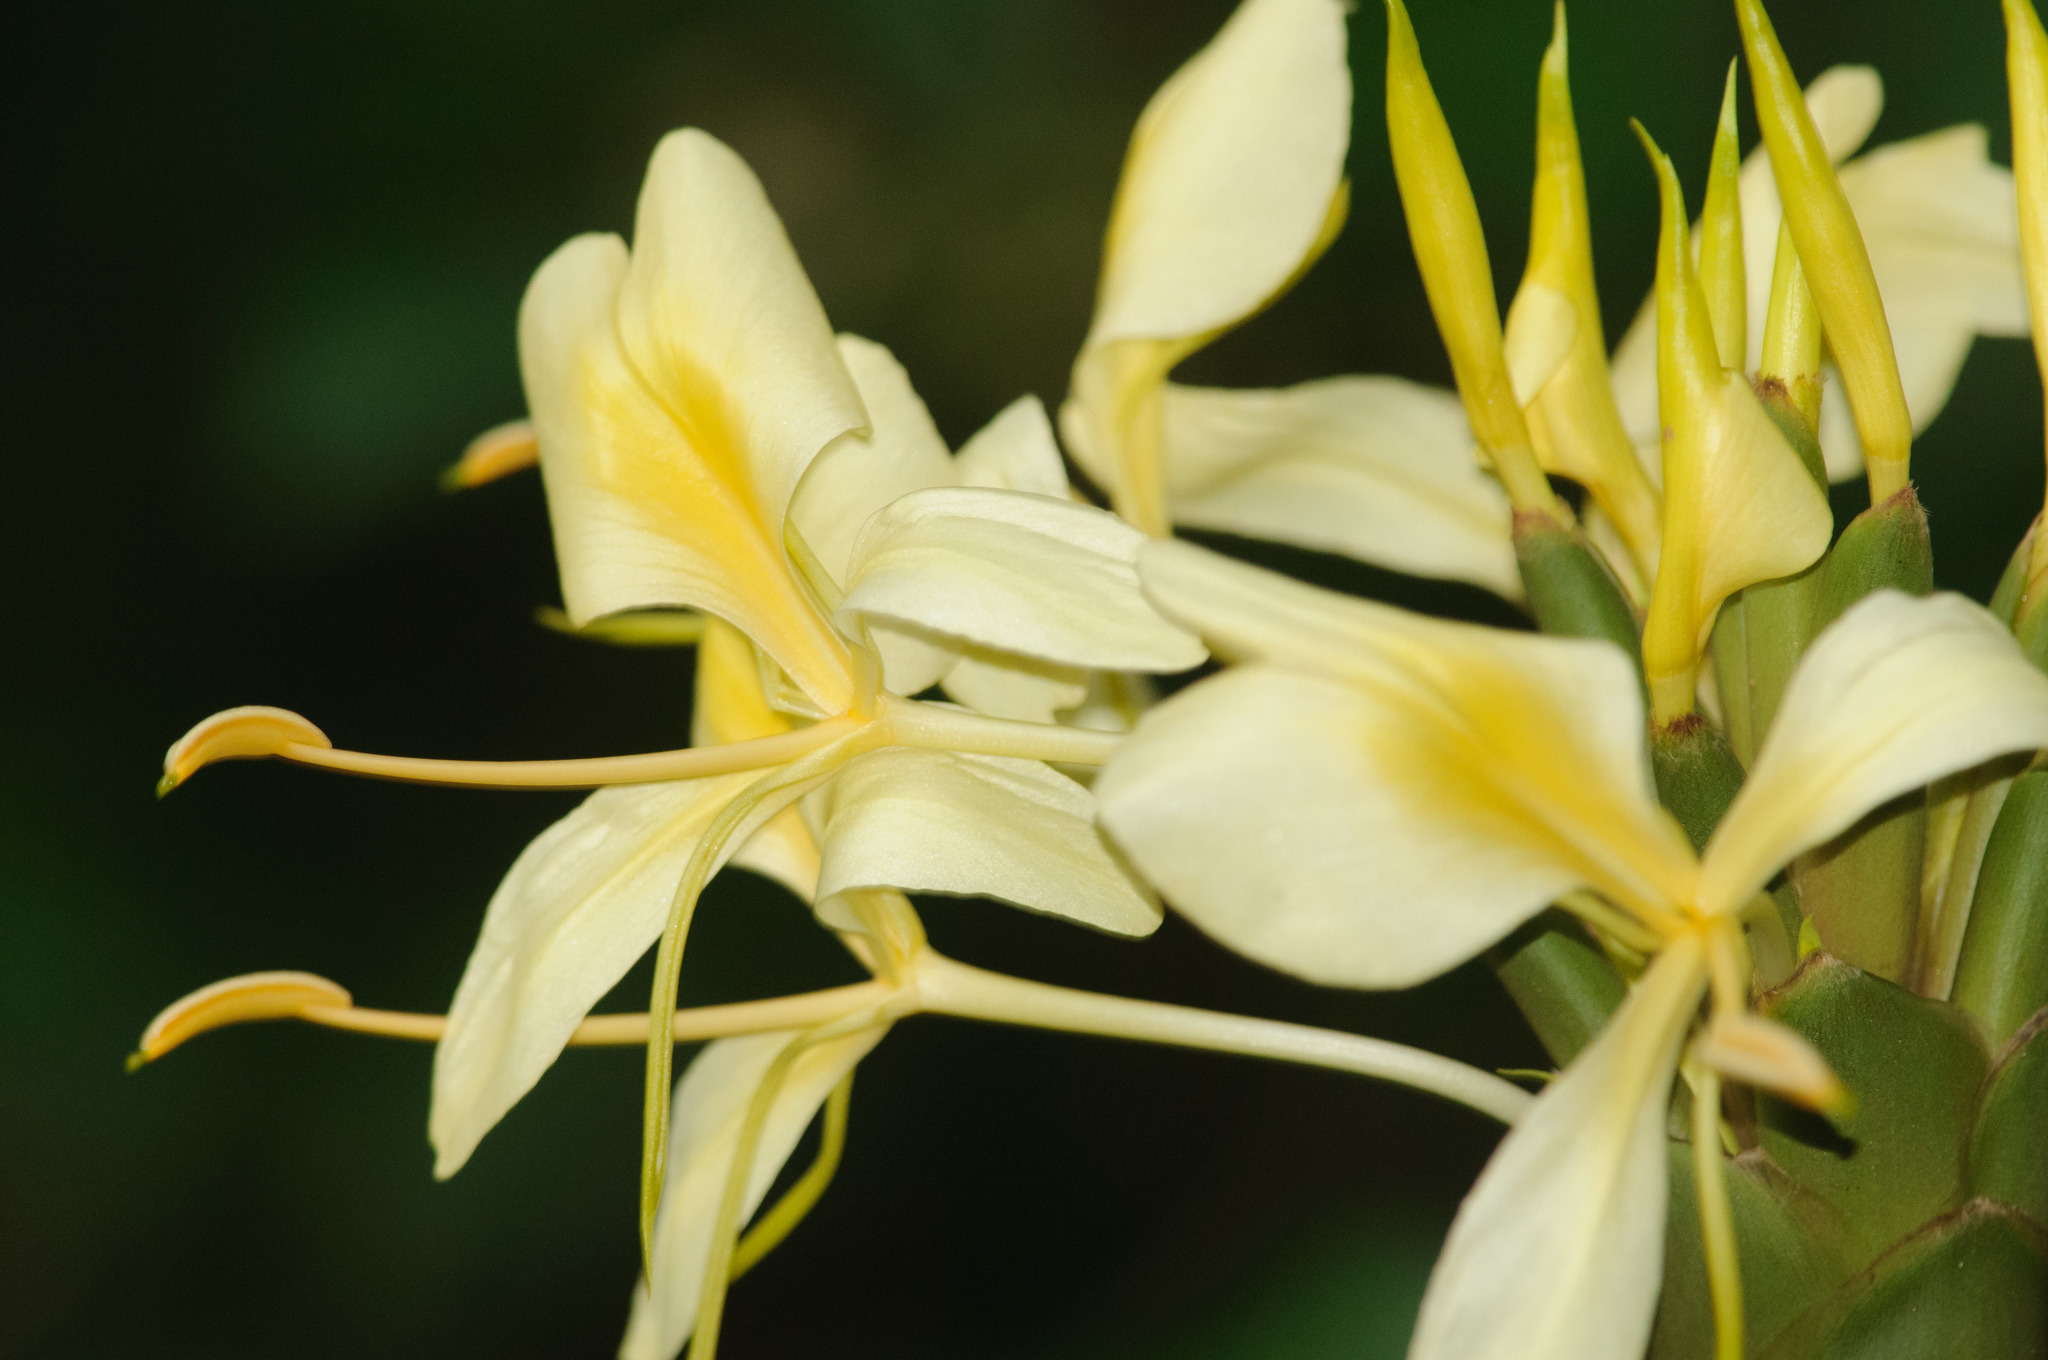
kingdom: Plantae
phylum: Tracheophyta
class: Liliopsida
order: Zingiberales
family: Zingiberaceae
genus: Hedychium
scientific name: Hedychium flavescens
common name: Yellow ginger
